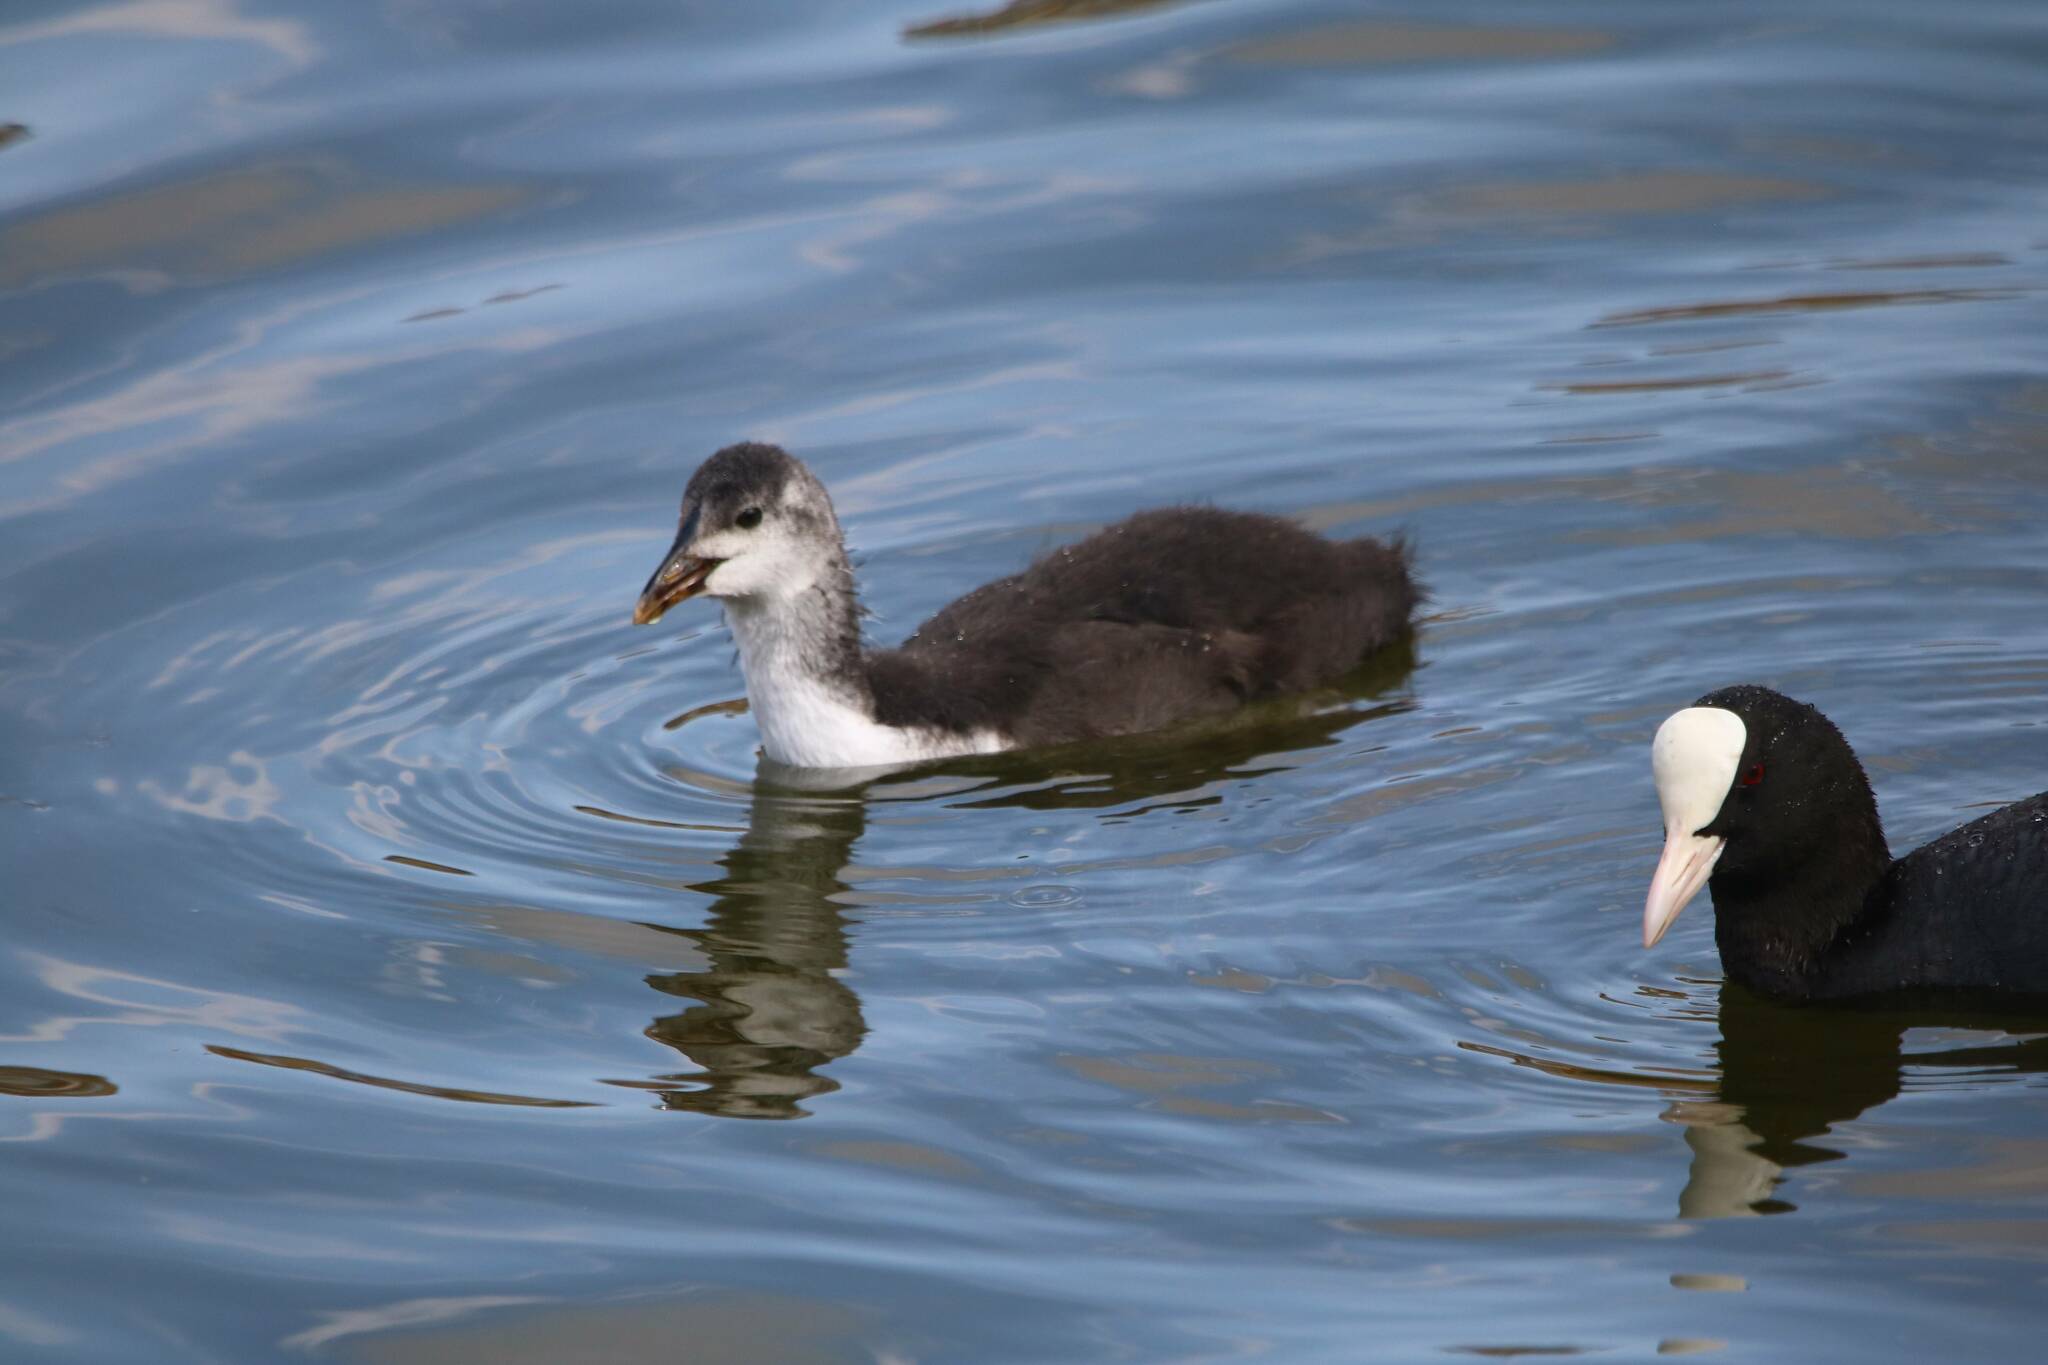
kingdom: Animalia
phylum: Chordata
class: Aves
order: Gruiformes
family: Rallidae
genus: Fulica
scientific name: Fulica atra
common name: Eurasian coot
